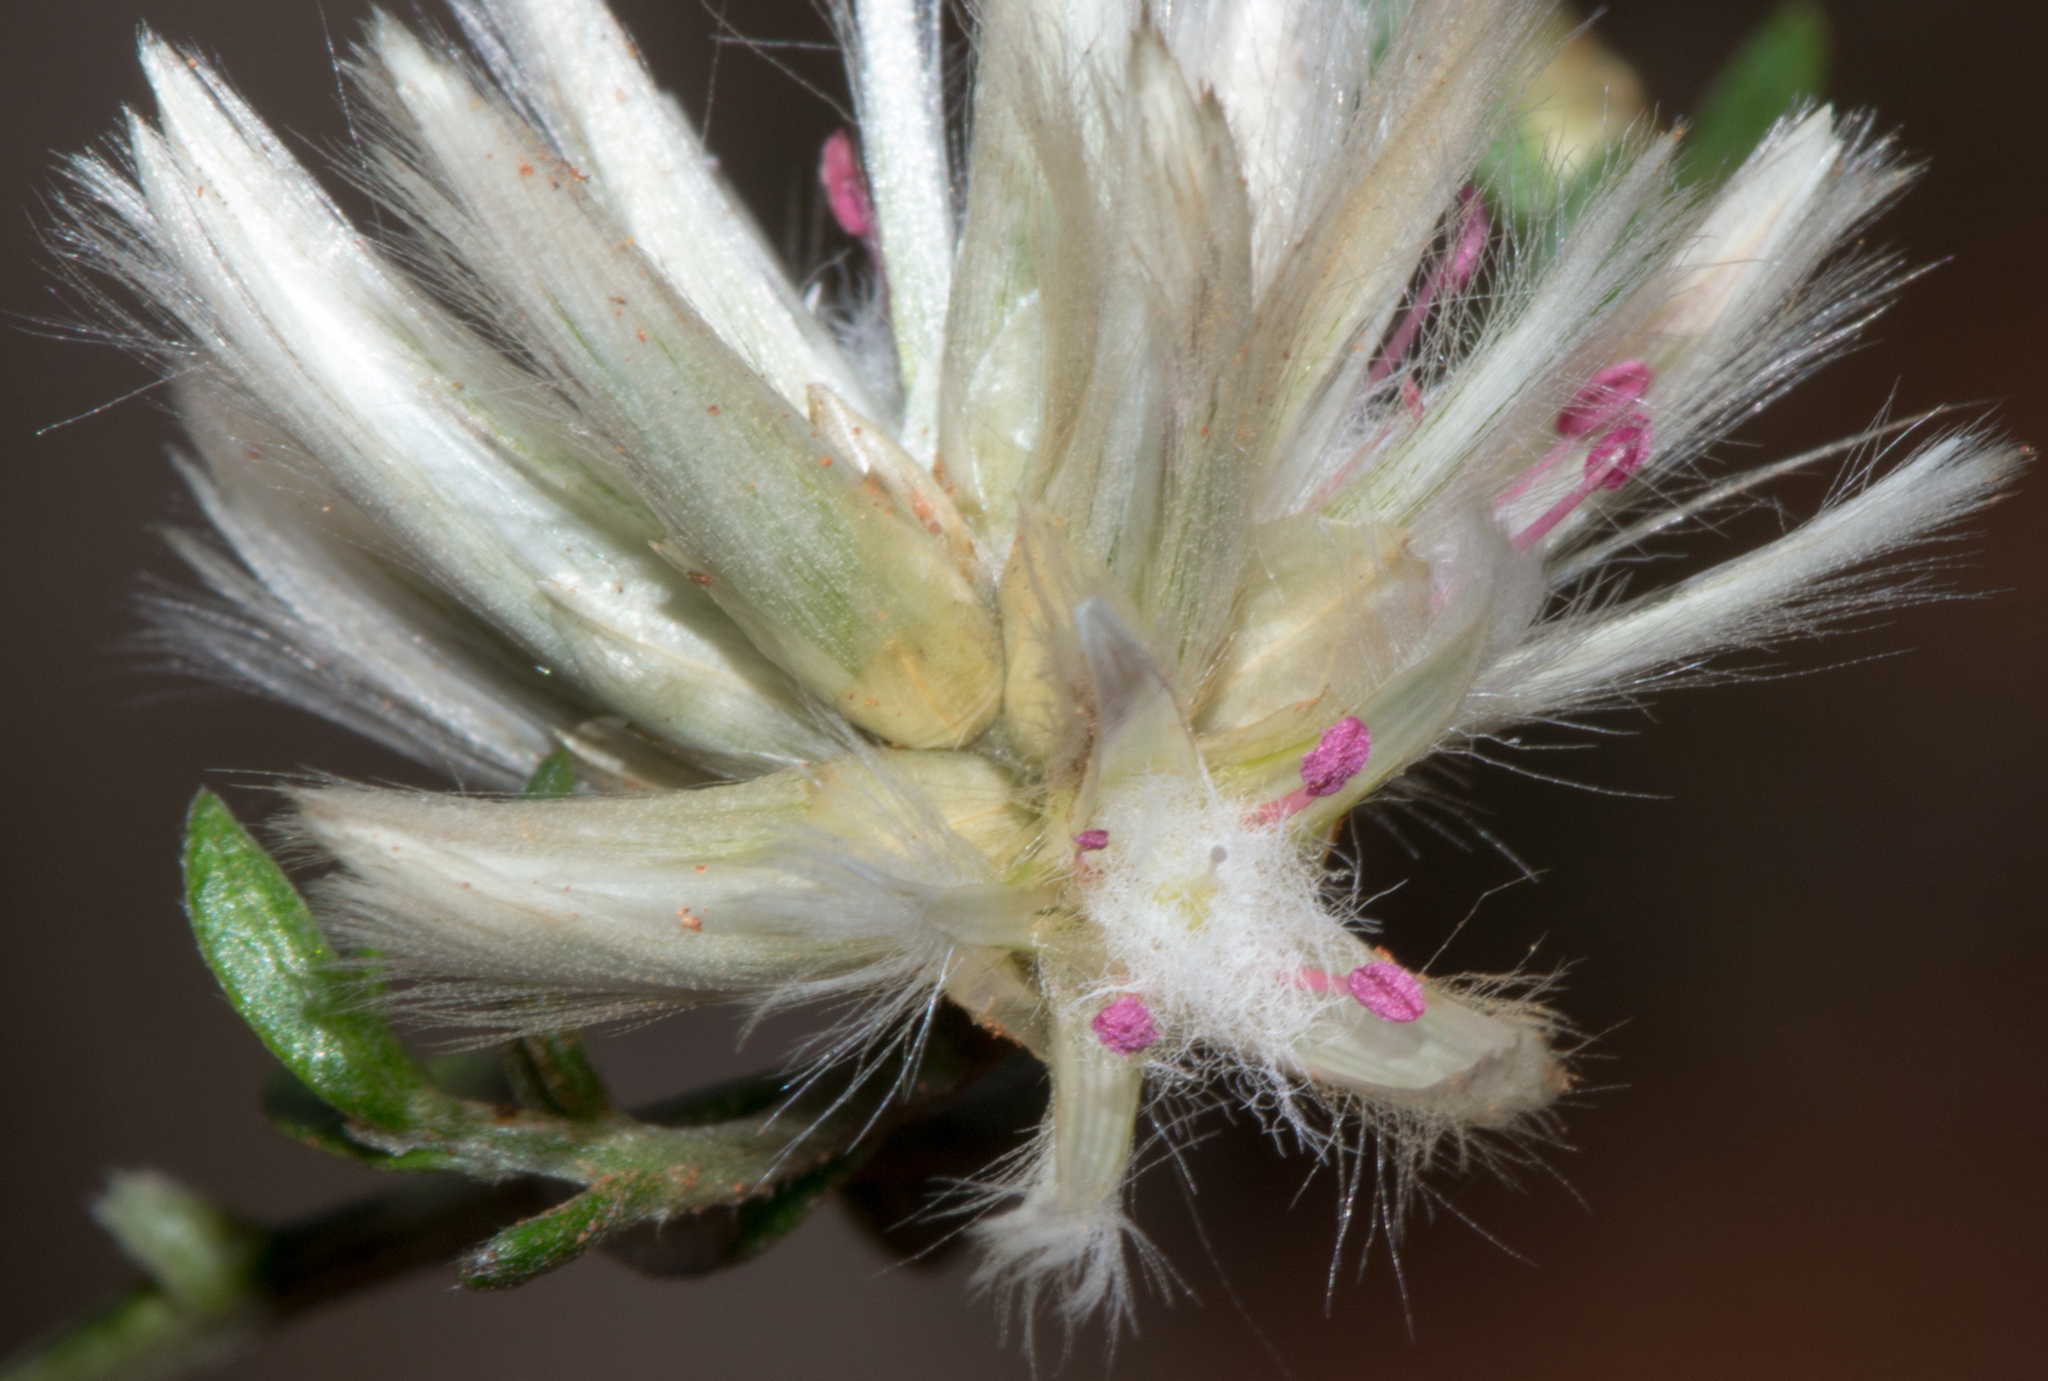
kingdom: Plantae
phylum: Tracheophyta
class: Magnoliopsida
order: Caryophyllales
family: Amaranthaceae
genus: Ptilotus
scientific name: Ptilotus divaricatus
